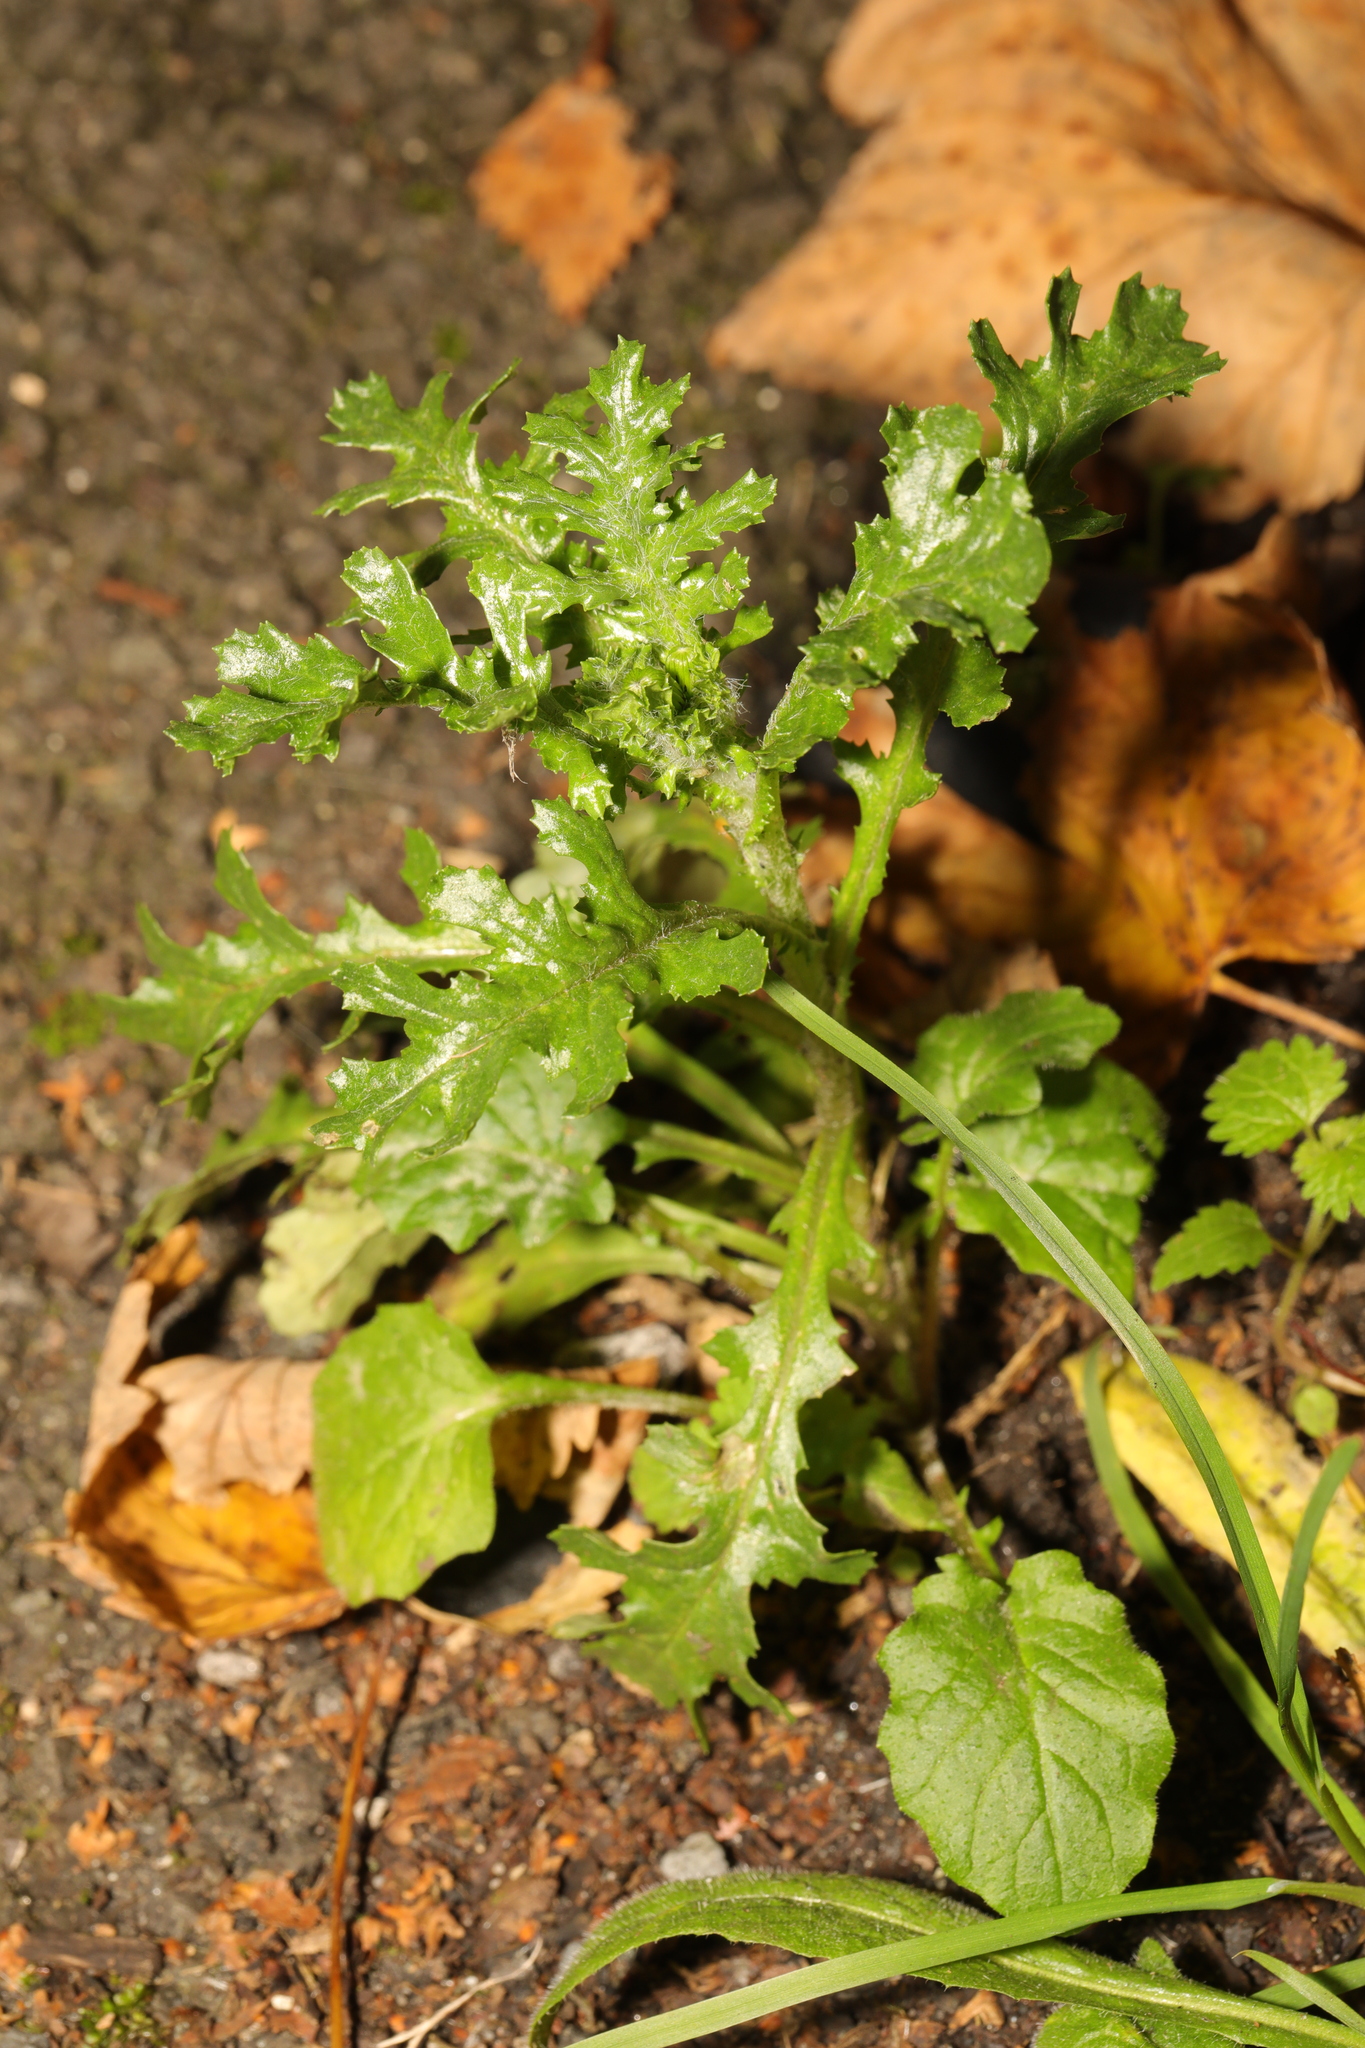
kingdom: Plantae
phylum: Tracheophyta
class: Magnoliopsida
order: Asterales
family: Asteraceae
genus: Senecio
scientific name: Senecio vulgaris
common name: Old-man-in-the-spring
